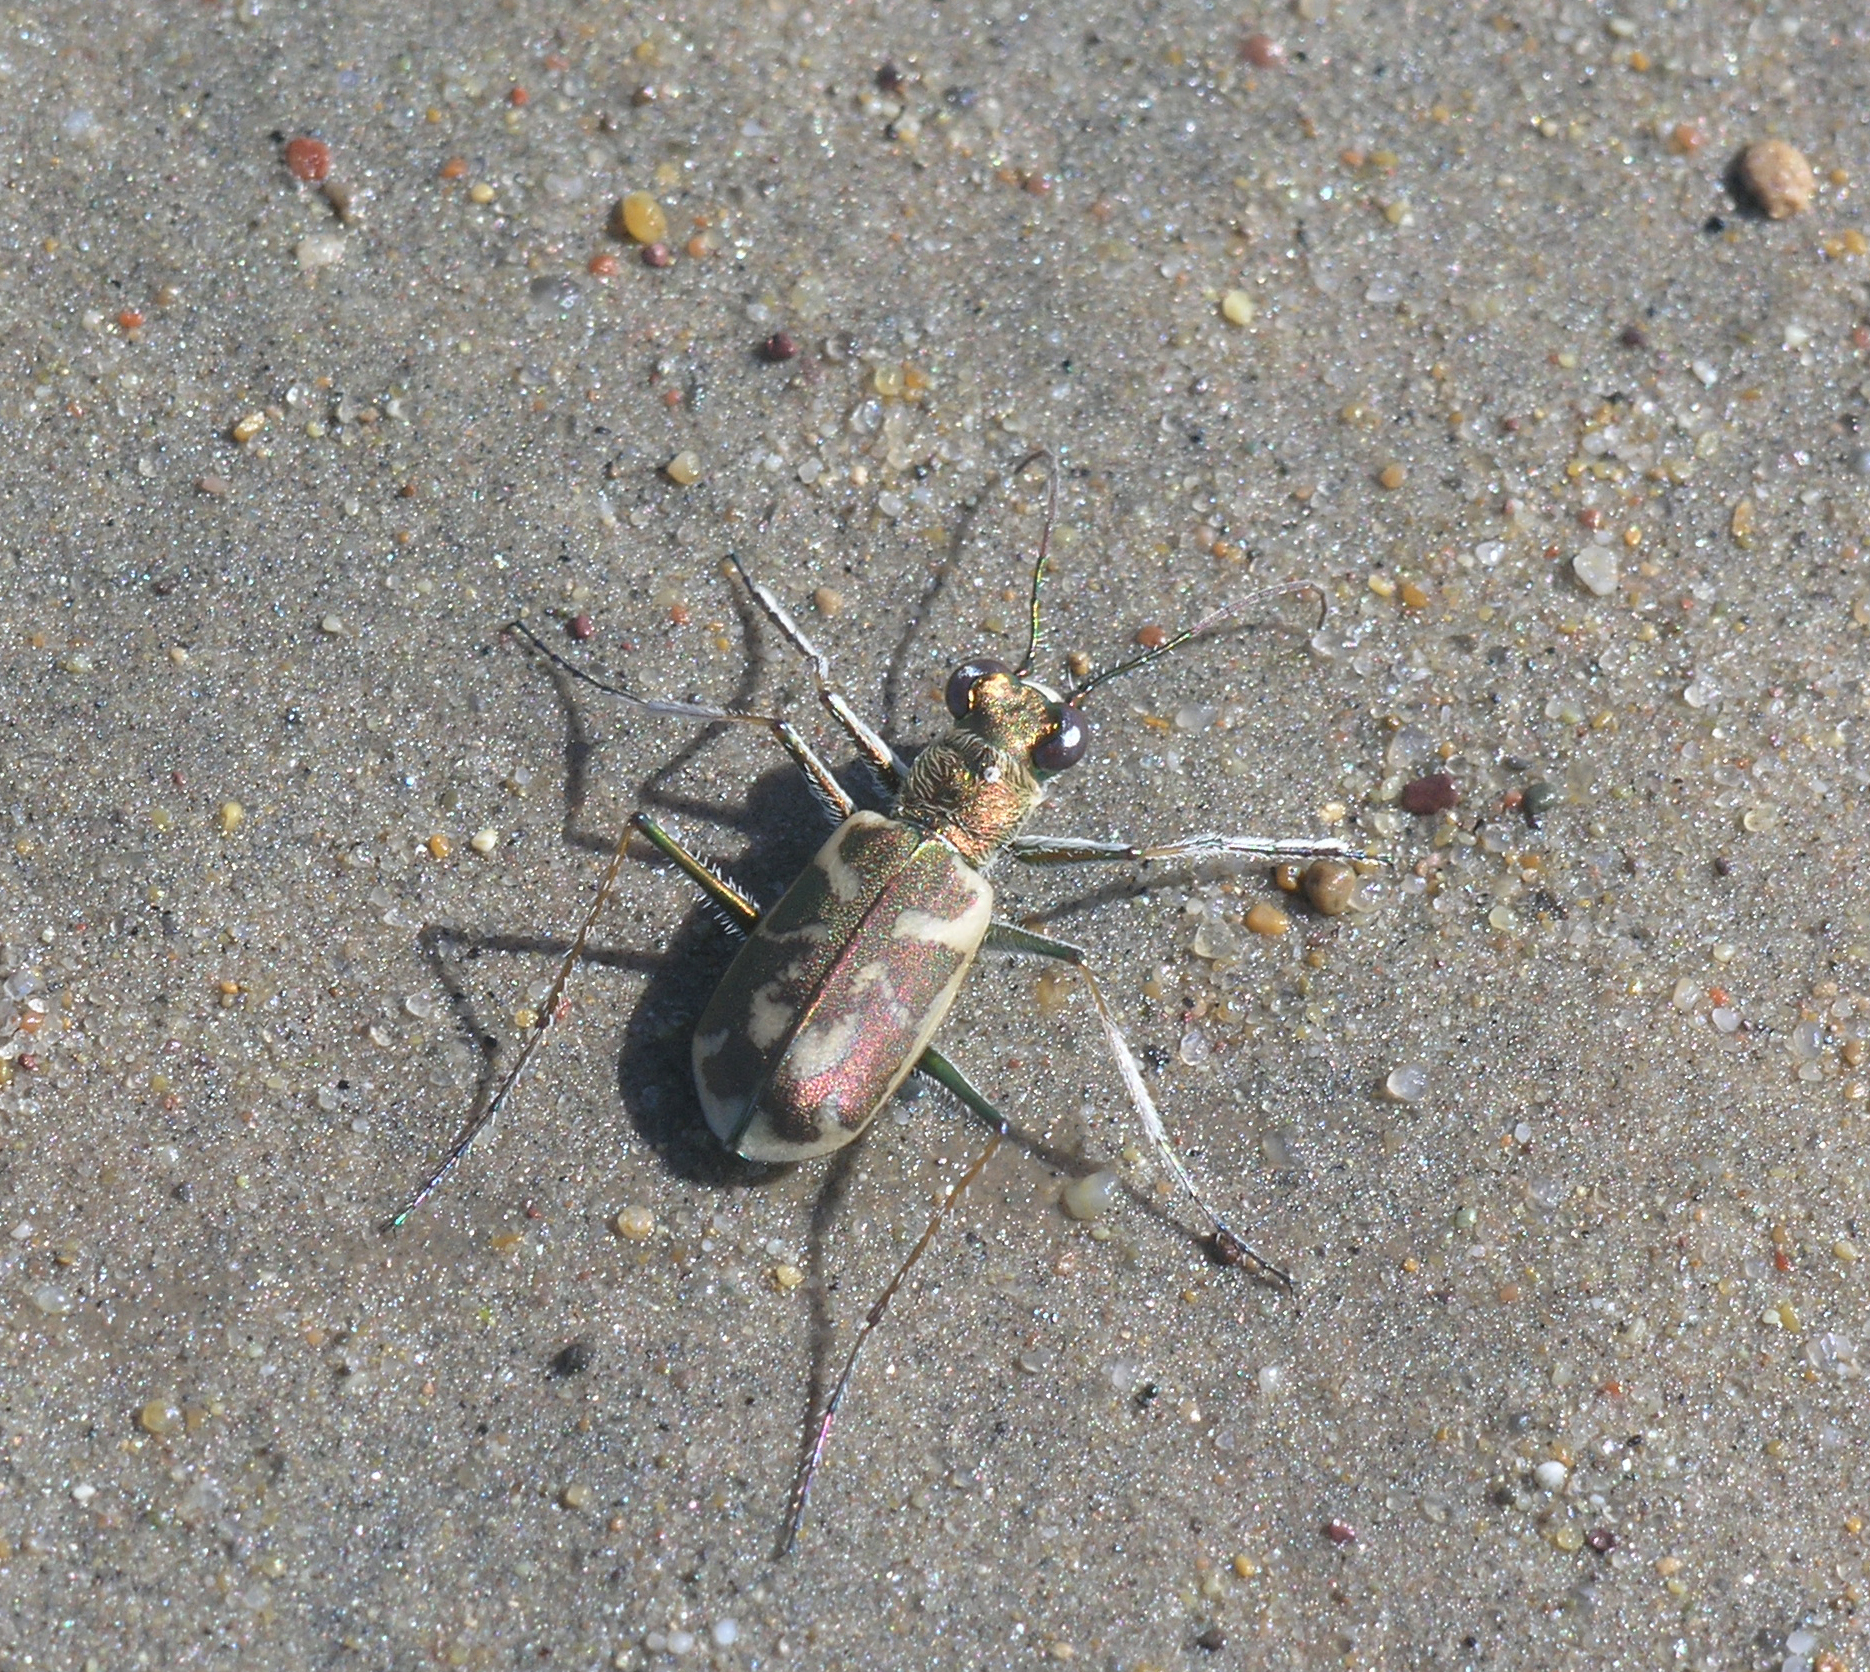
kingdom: Animalia
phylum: Arthropoda
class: Insecta
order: Coleoptera
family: Carabidae
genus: Cephalota
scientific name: Cephalota elegans
